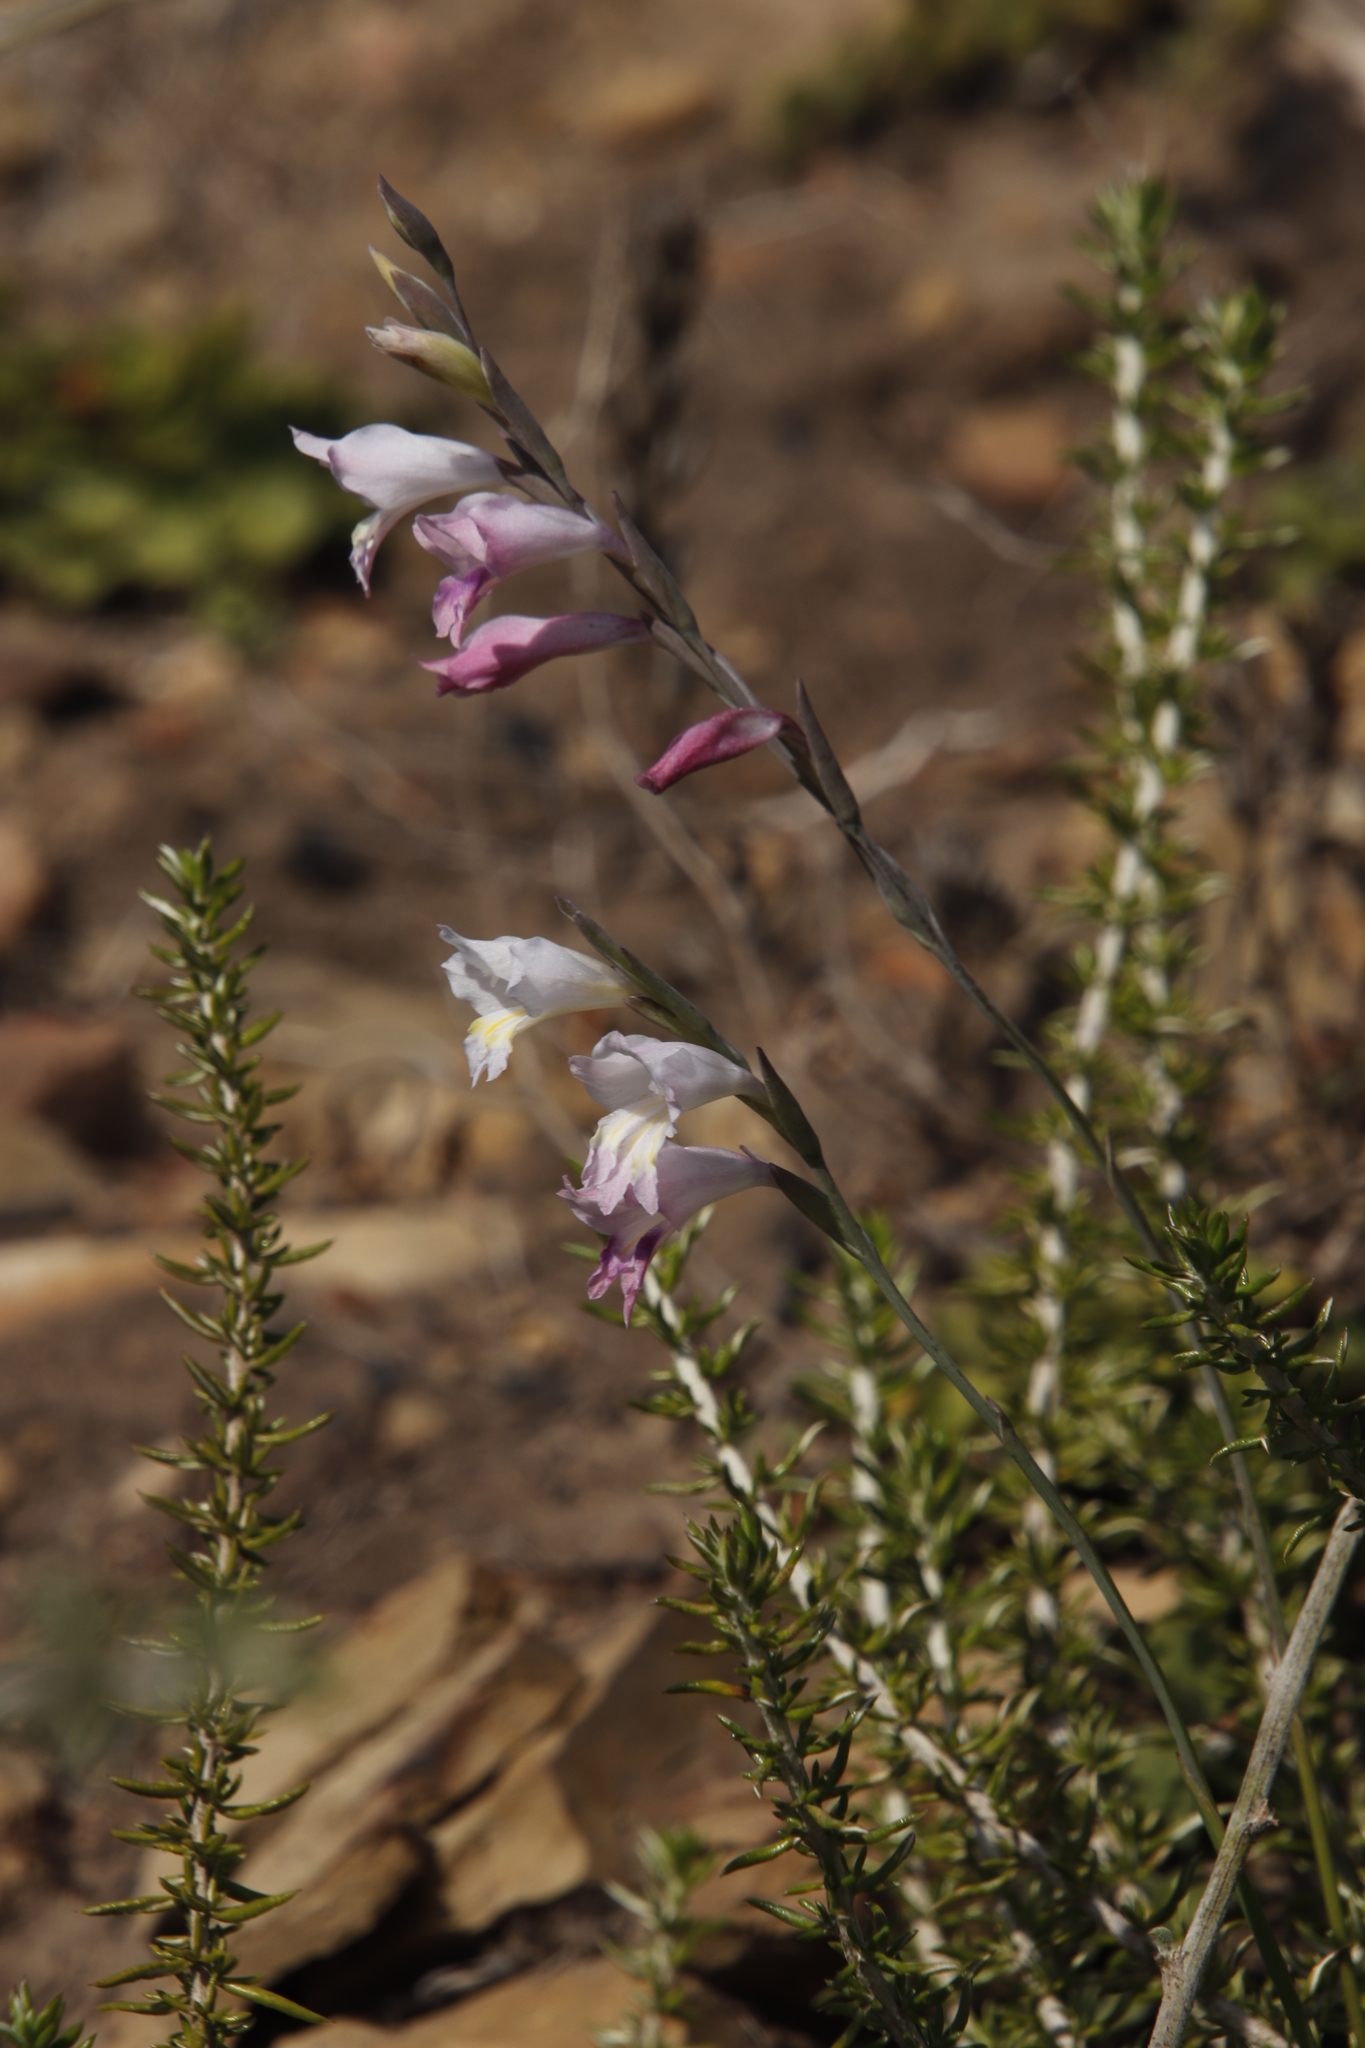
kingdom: Plantae
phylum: Tracheophyta
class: Liliopsida
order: Asparagales
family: Iridaceae
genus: Gladiolus
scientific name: Gladiolus brevifolius
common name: March pypie
